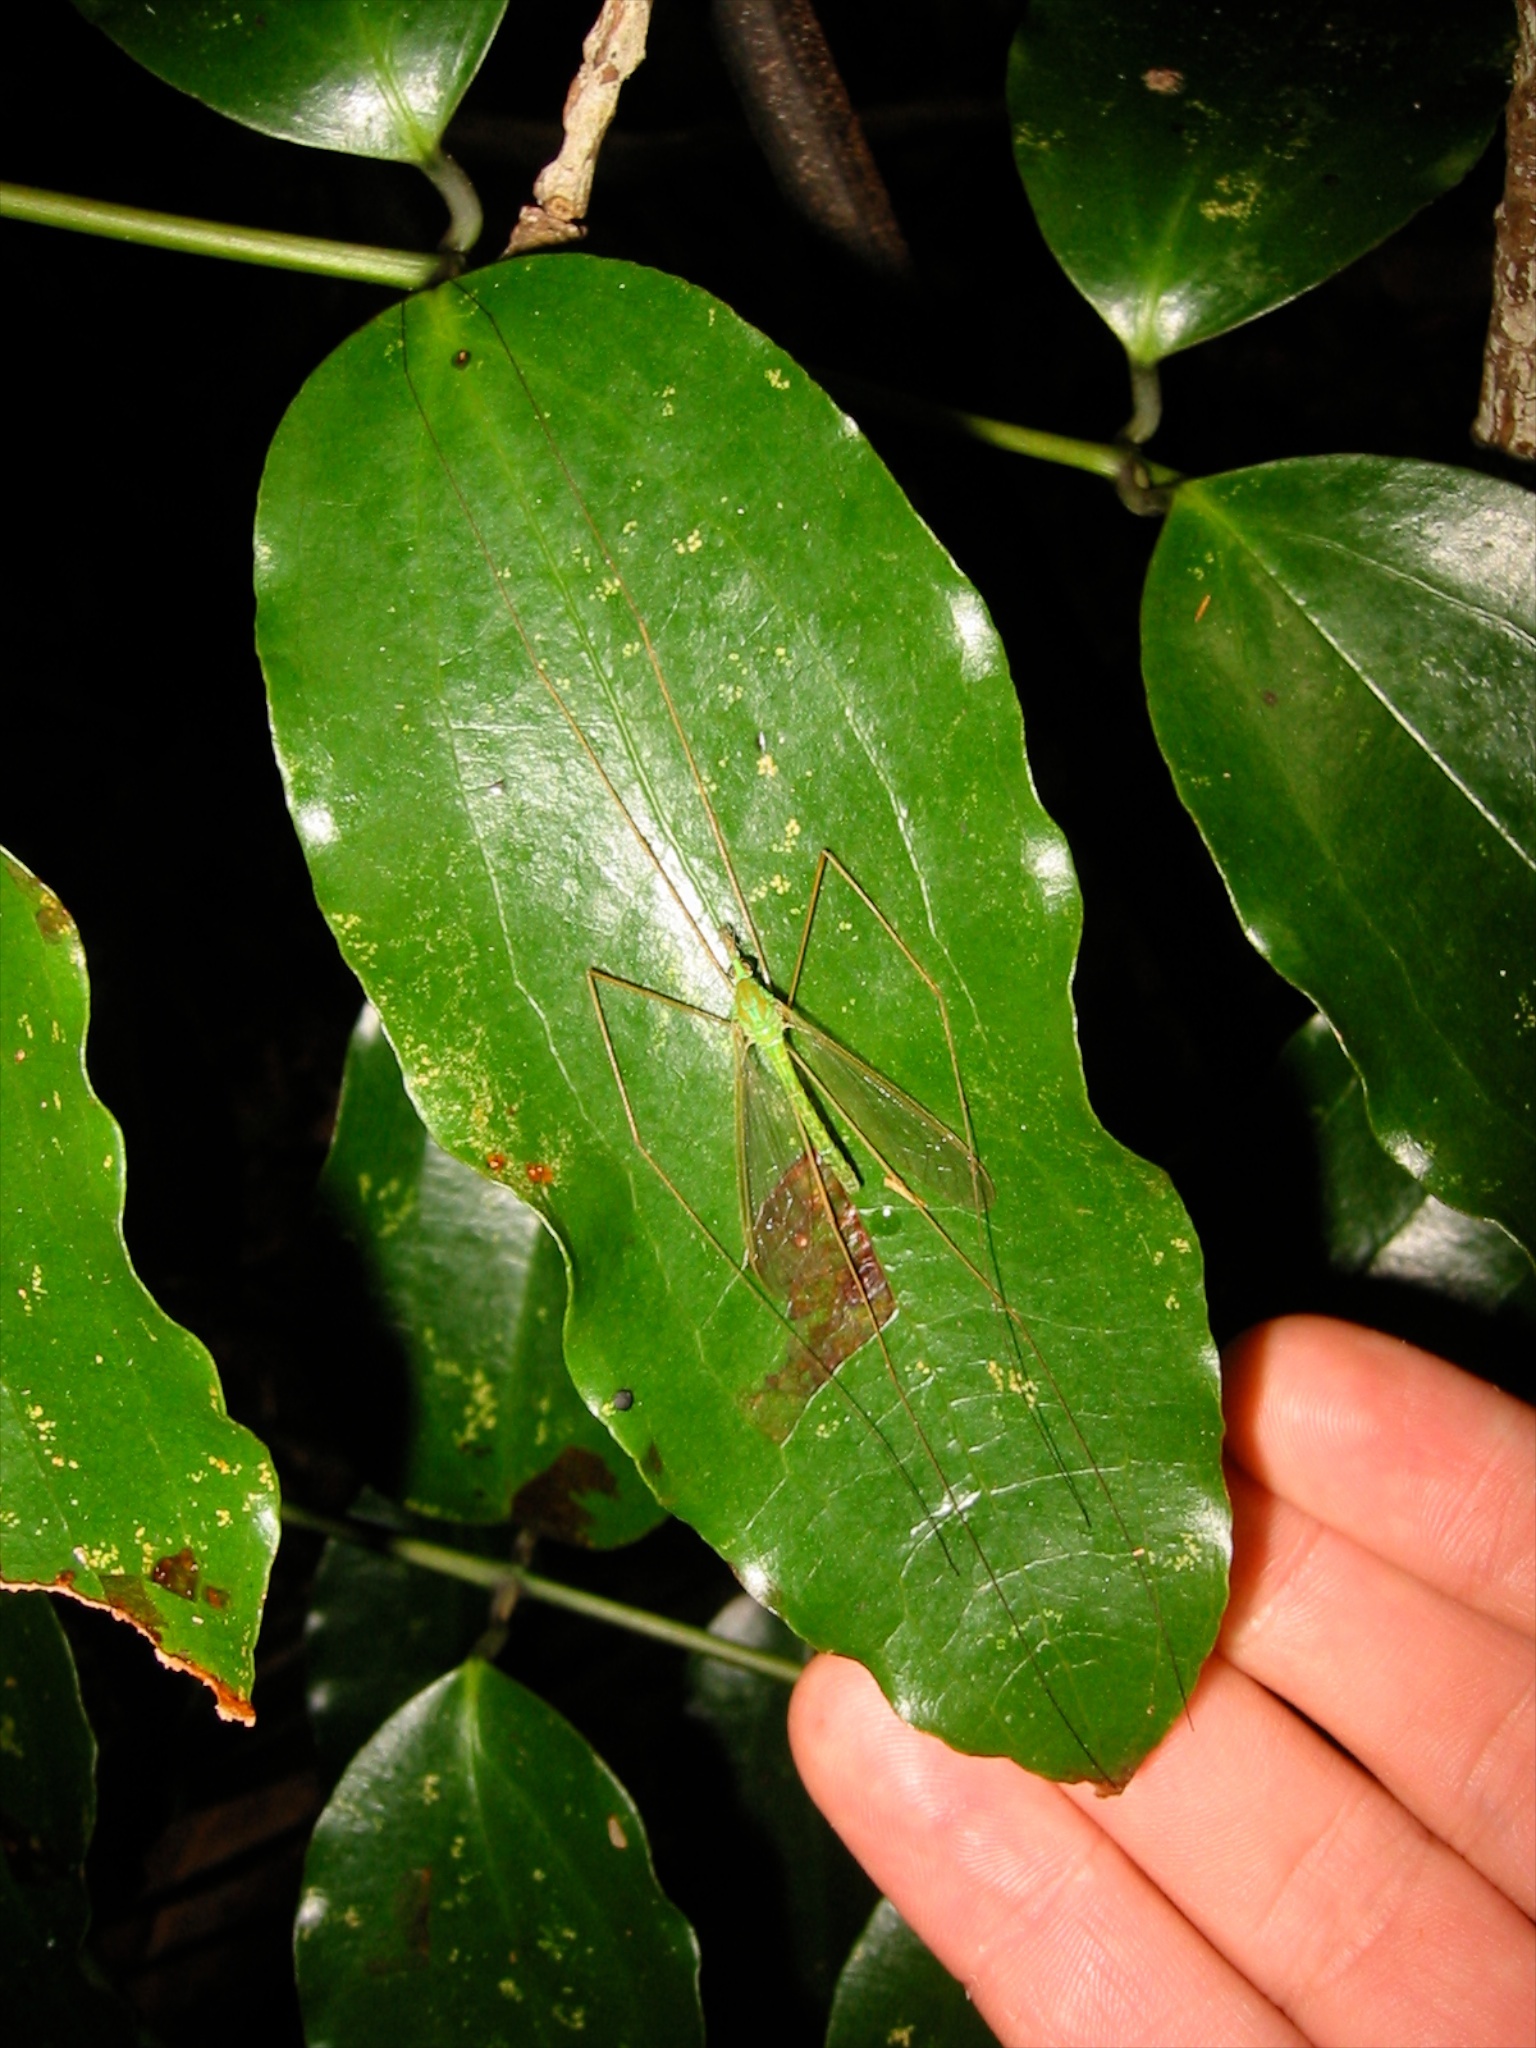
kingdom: Animalia
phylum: Arthropoda
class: Insecta
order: Diptera
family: Tipulidae
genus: Leptotarsus
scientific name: Leptotarsus virescens
